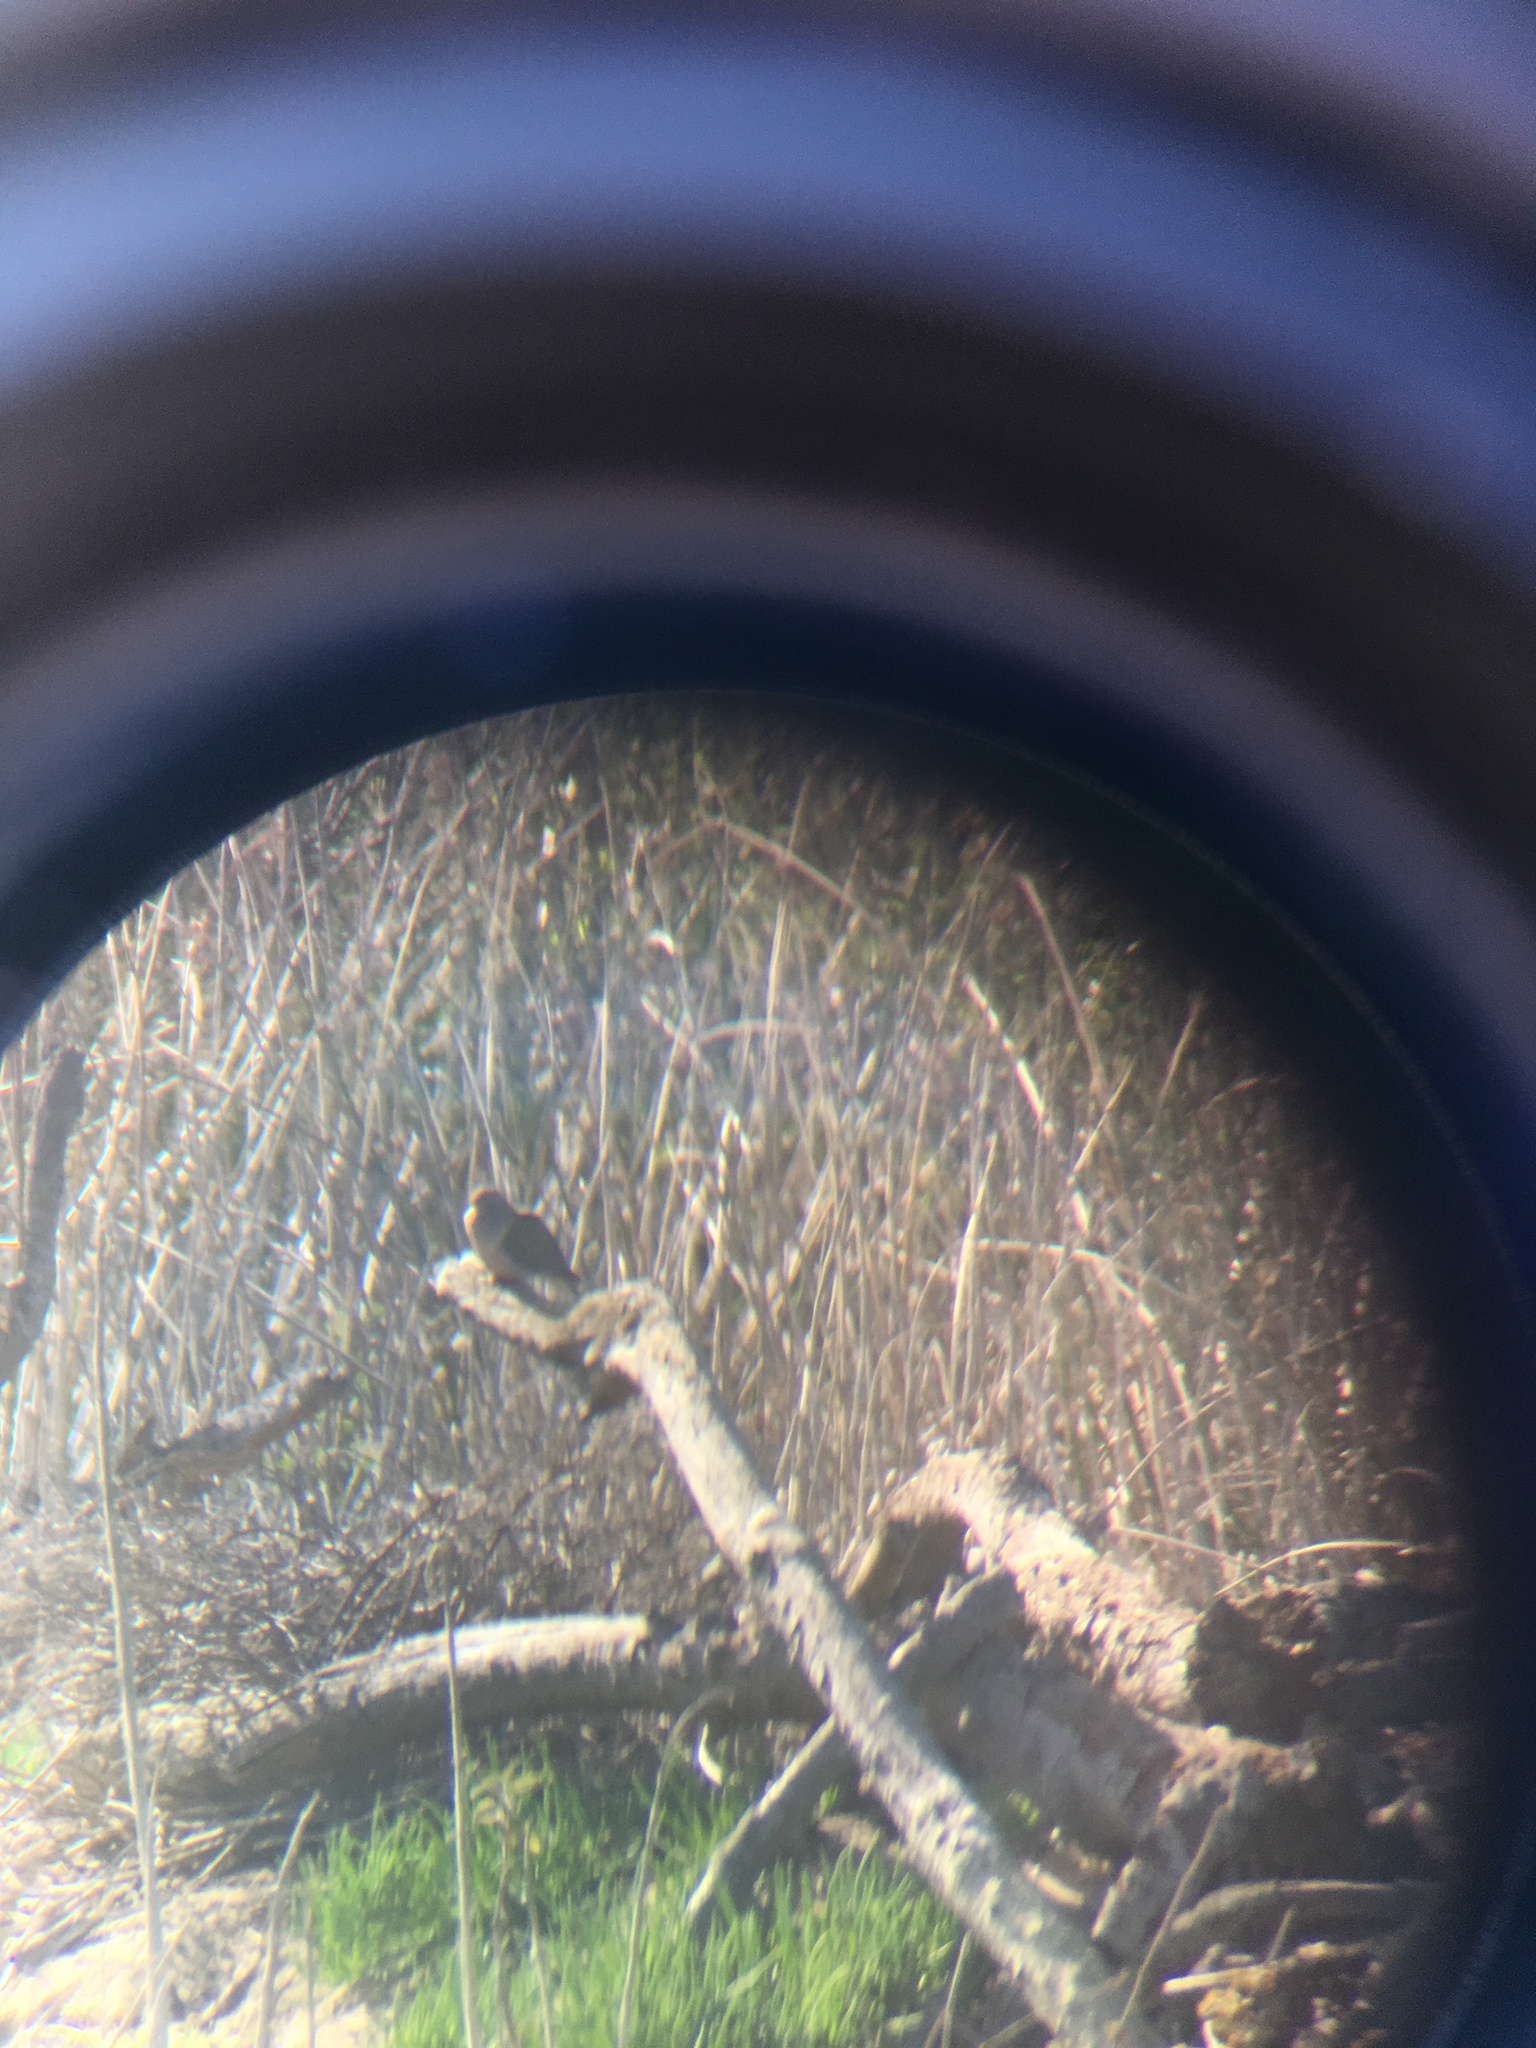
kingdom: Animalia
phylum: Chordata
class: Aves
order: Columbiformes
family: Columbidae
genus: Zenaida
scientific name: Zenaida macroura
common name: Mourning dove
